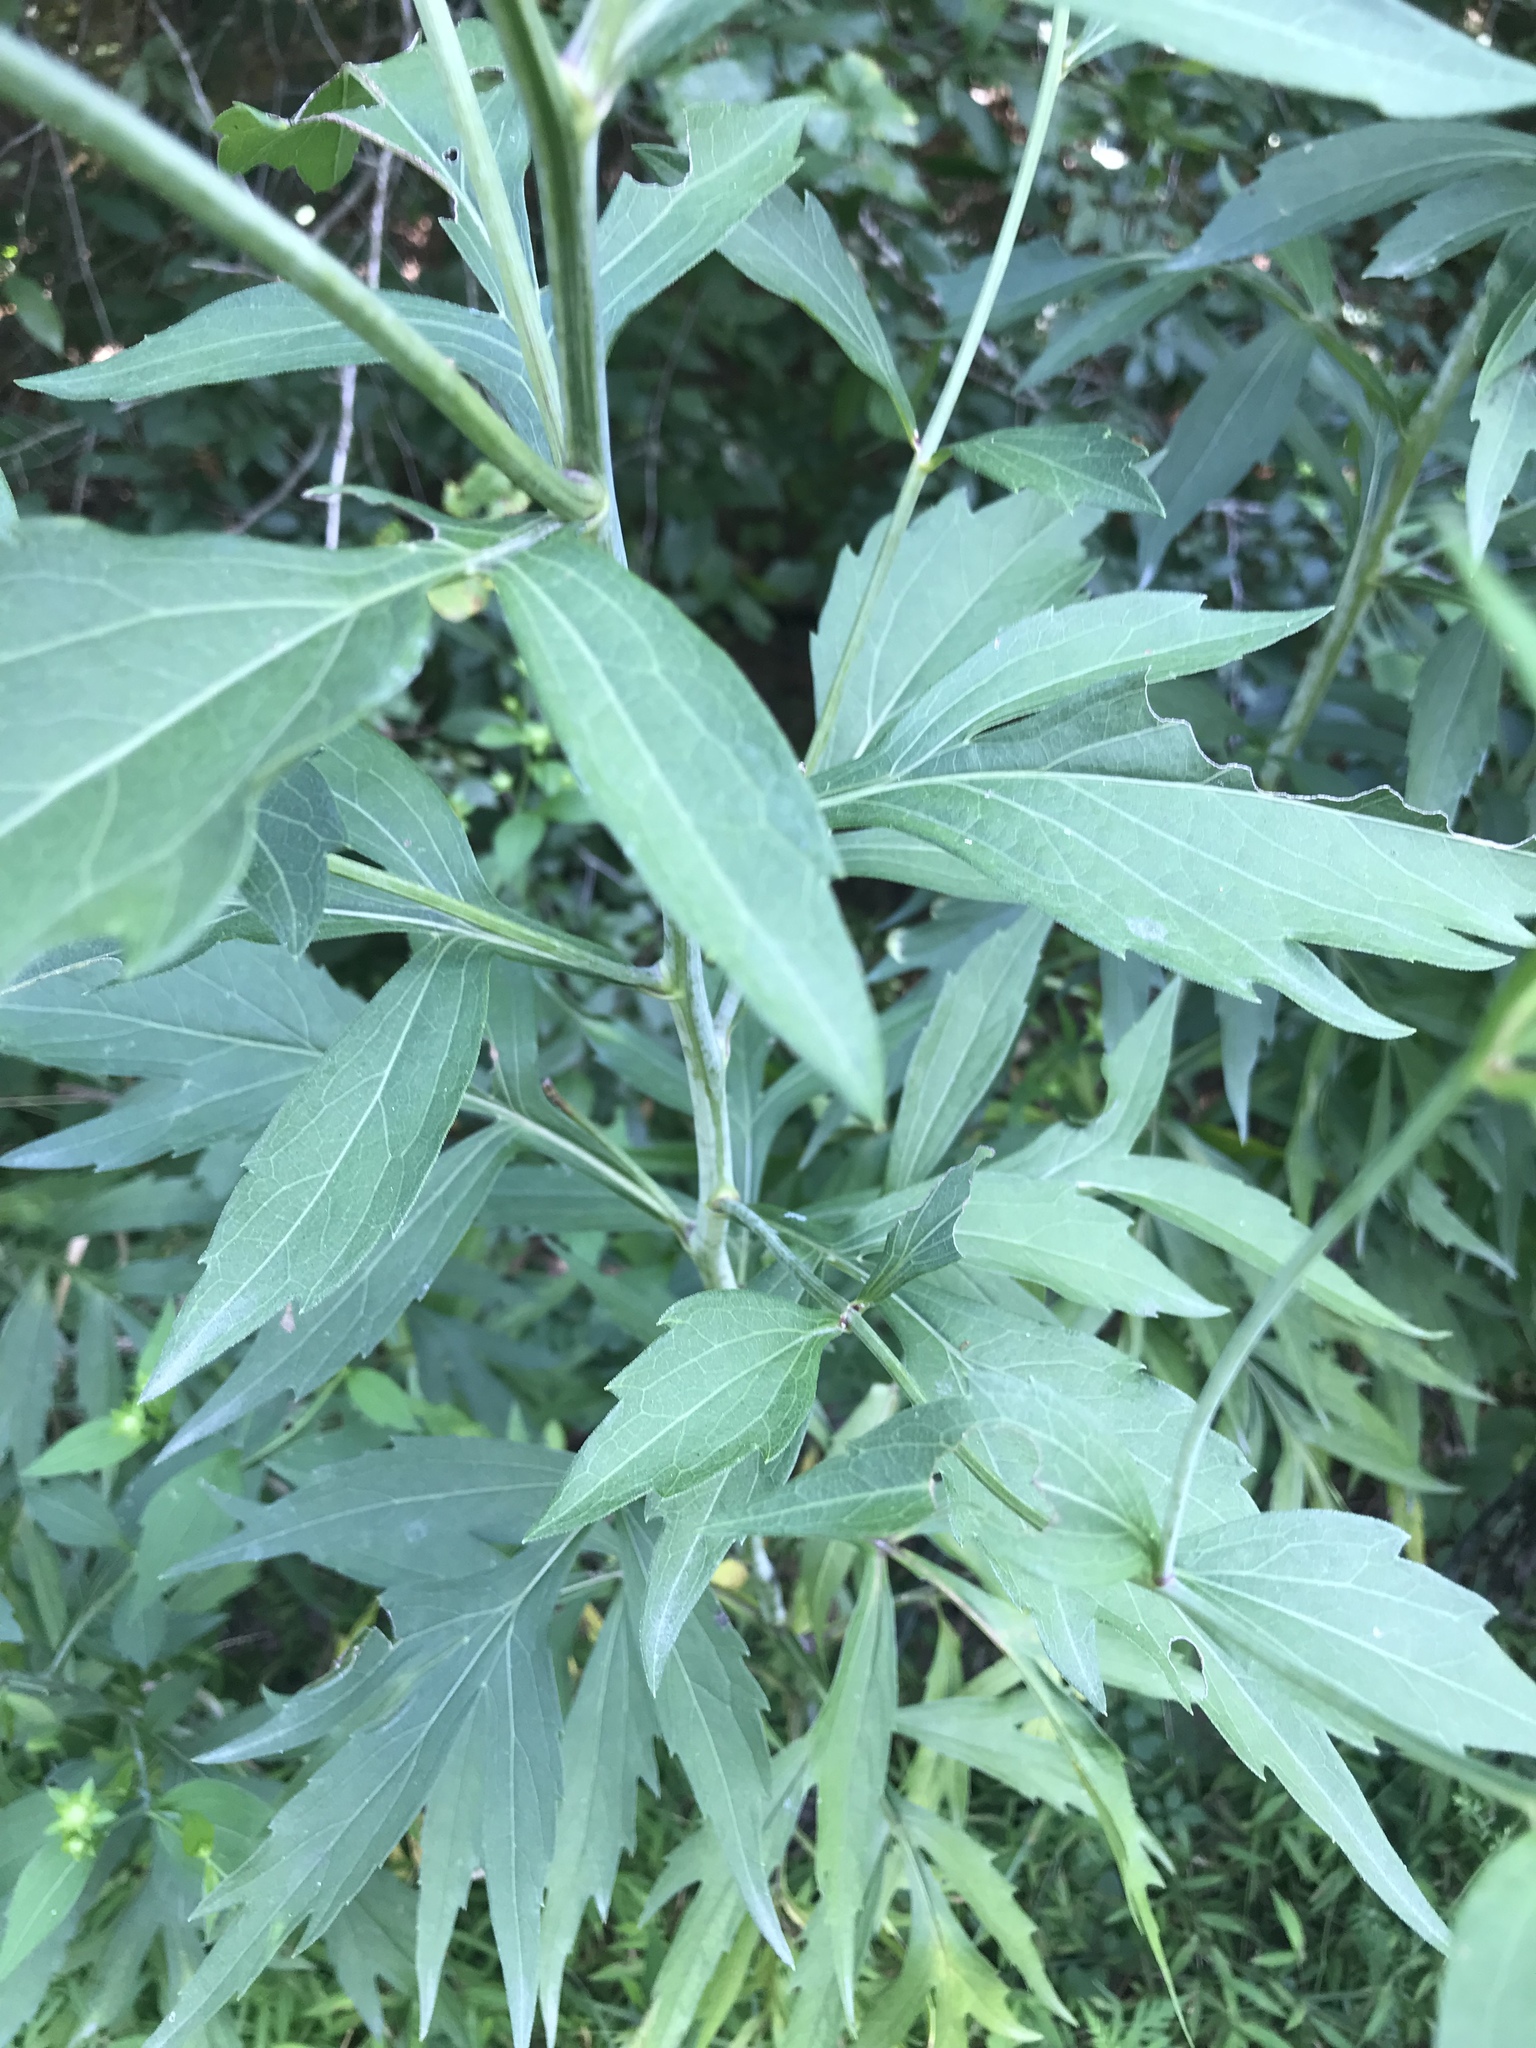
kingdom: Plantae
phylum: Tracheophyta
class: Magnoliopsida
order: Asterales
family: Asteraceae
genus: Rudbeckia
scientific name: Rudbeckia laciniata
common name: Coneflower
